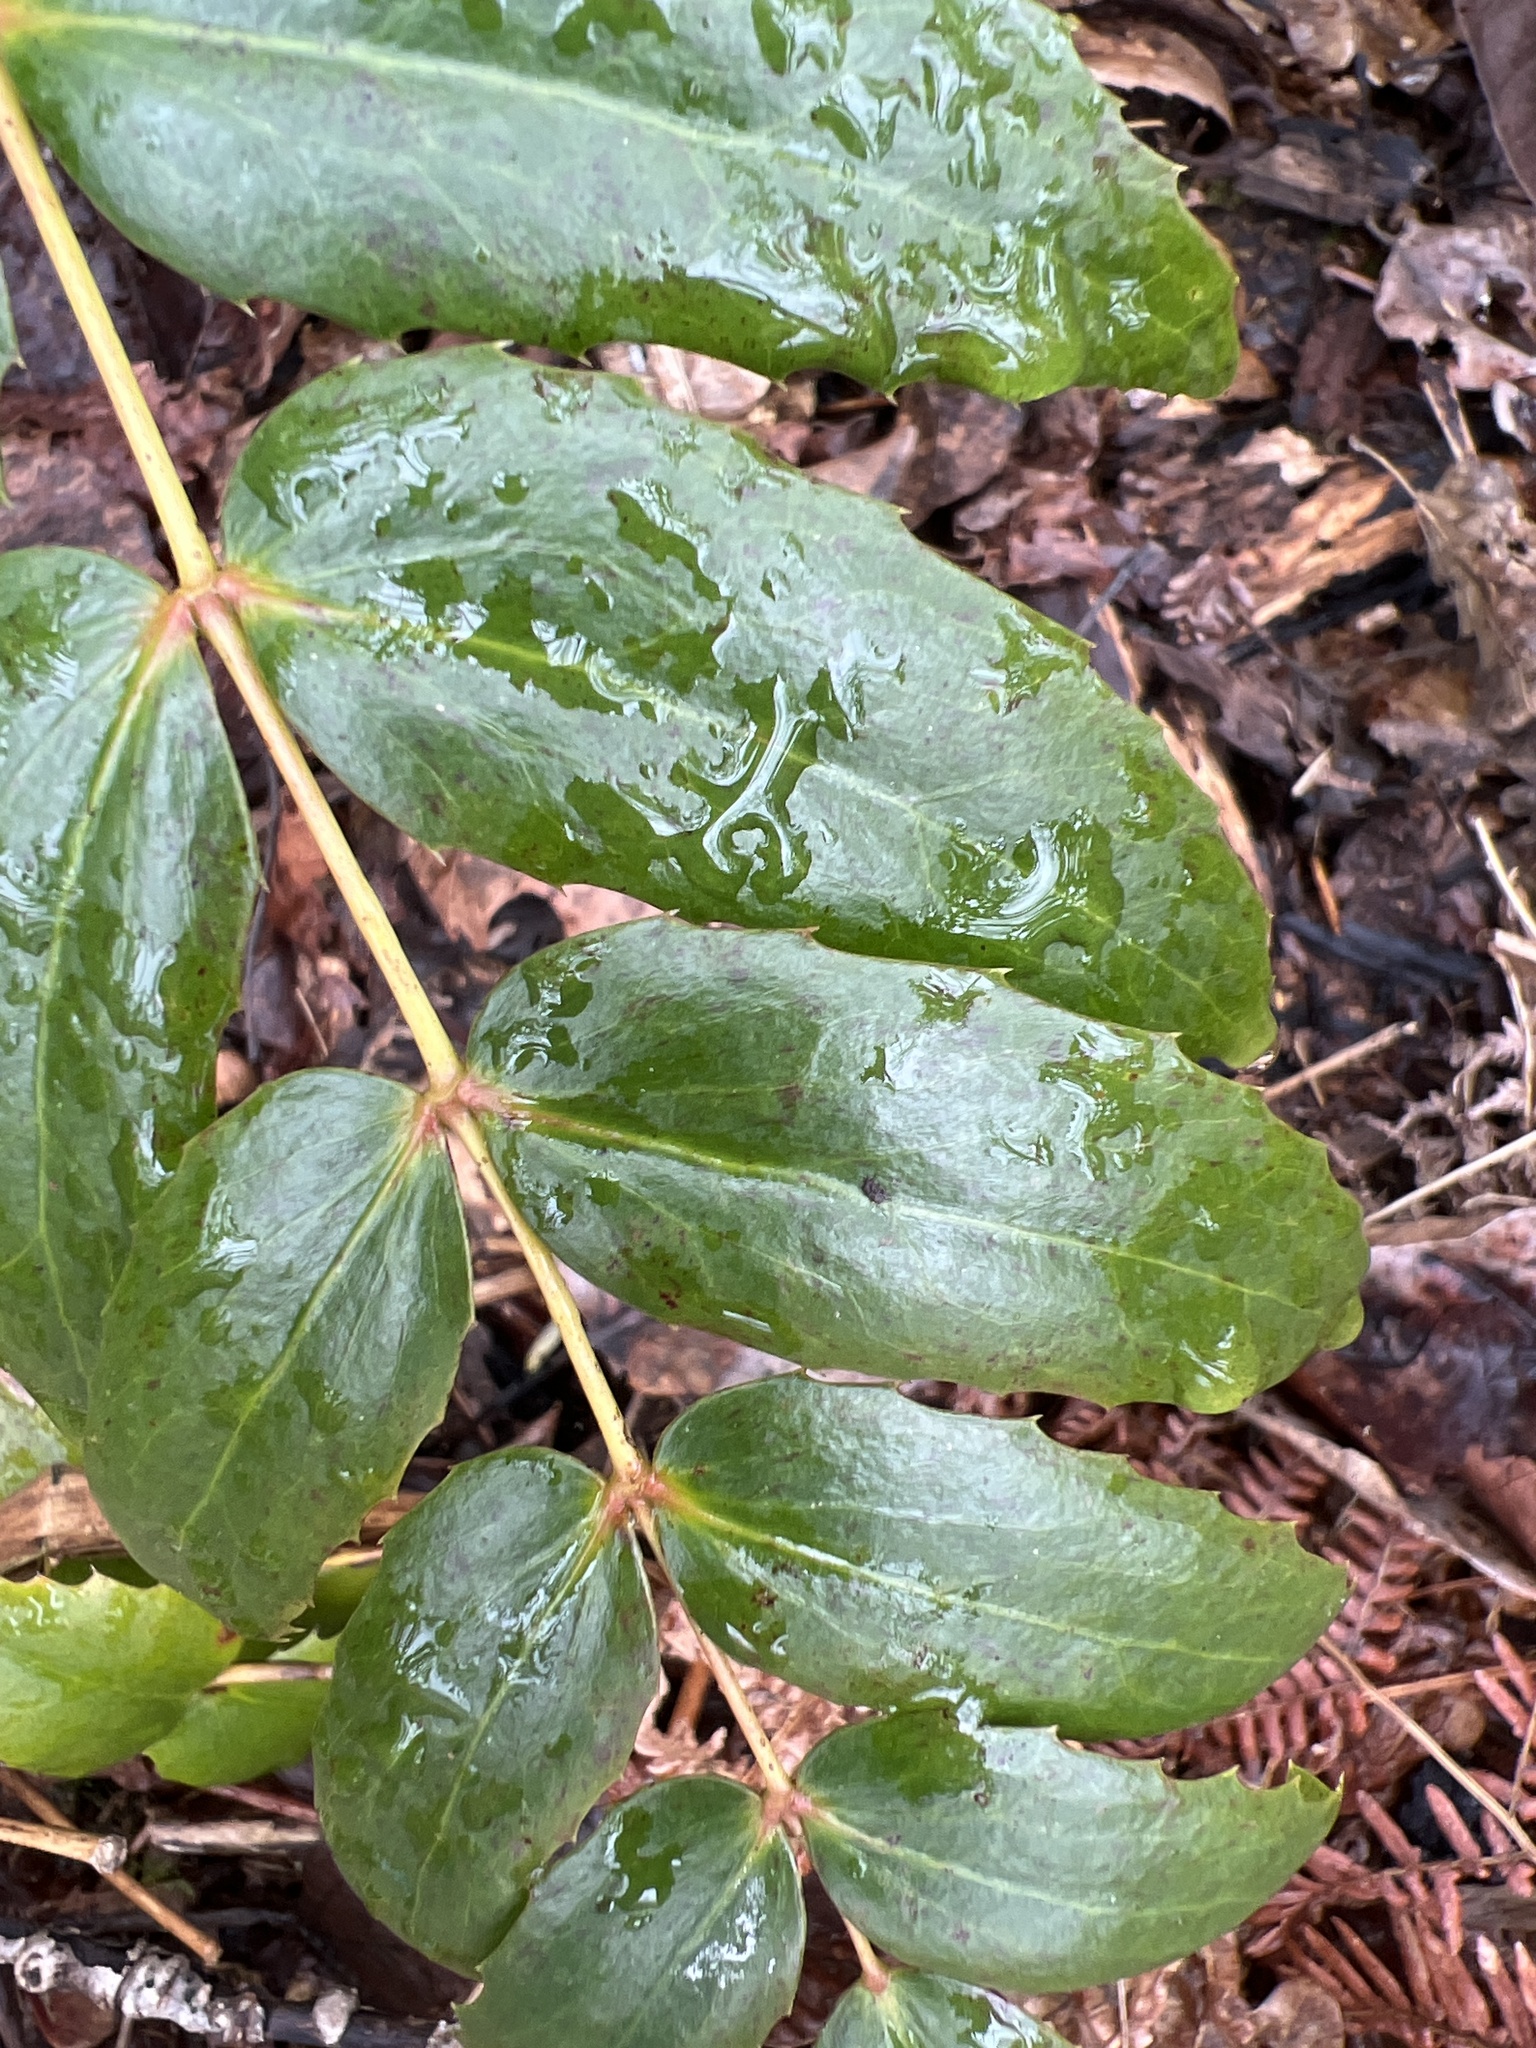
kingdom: Plantae
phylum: Tracheophyta
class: Magnoliopsida
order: Ranunculales
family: Berberidaceae
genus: Mahonia
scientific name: Mahonia nervosa
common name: Cascade oregon-grape
